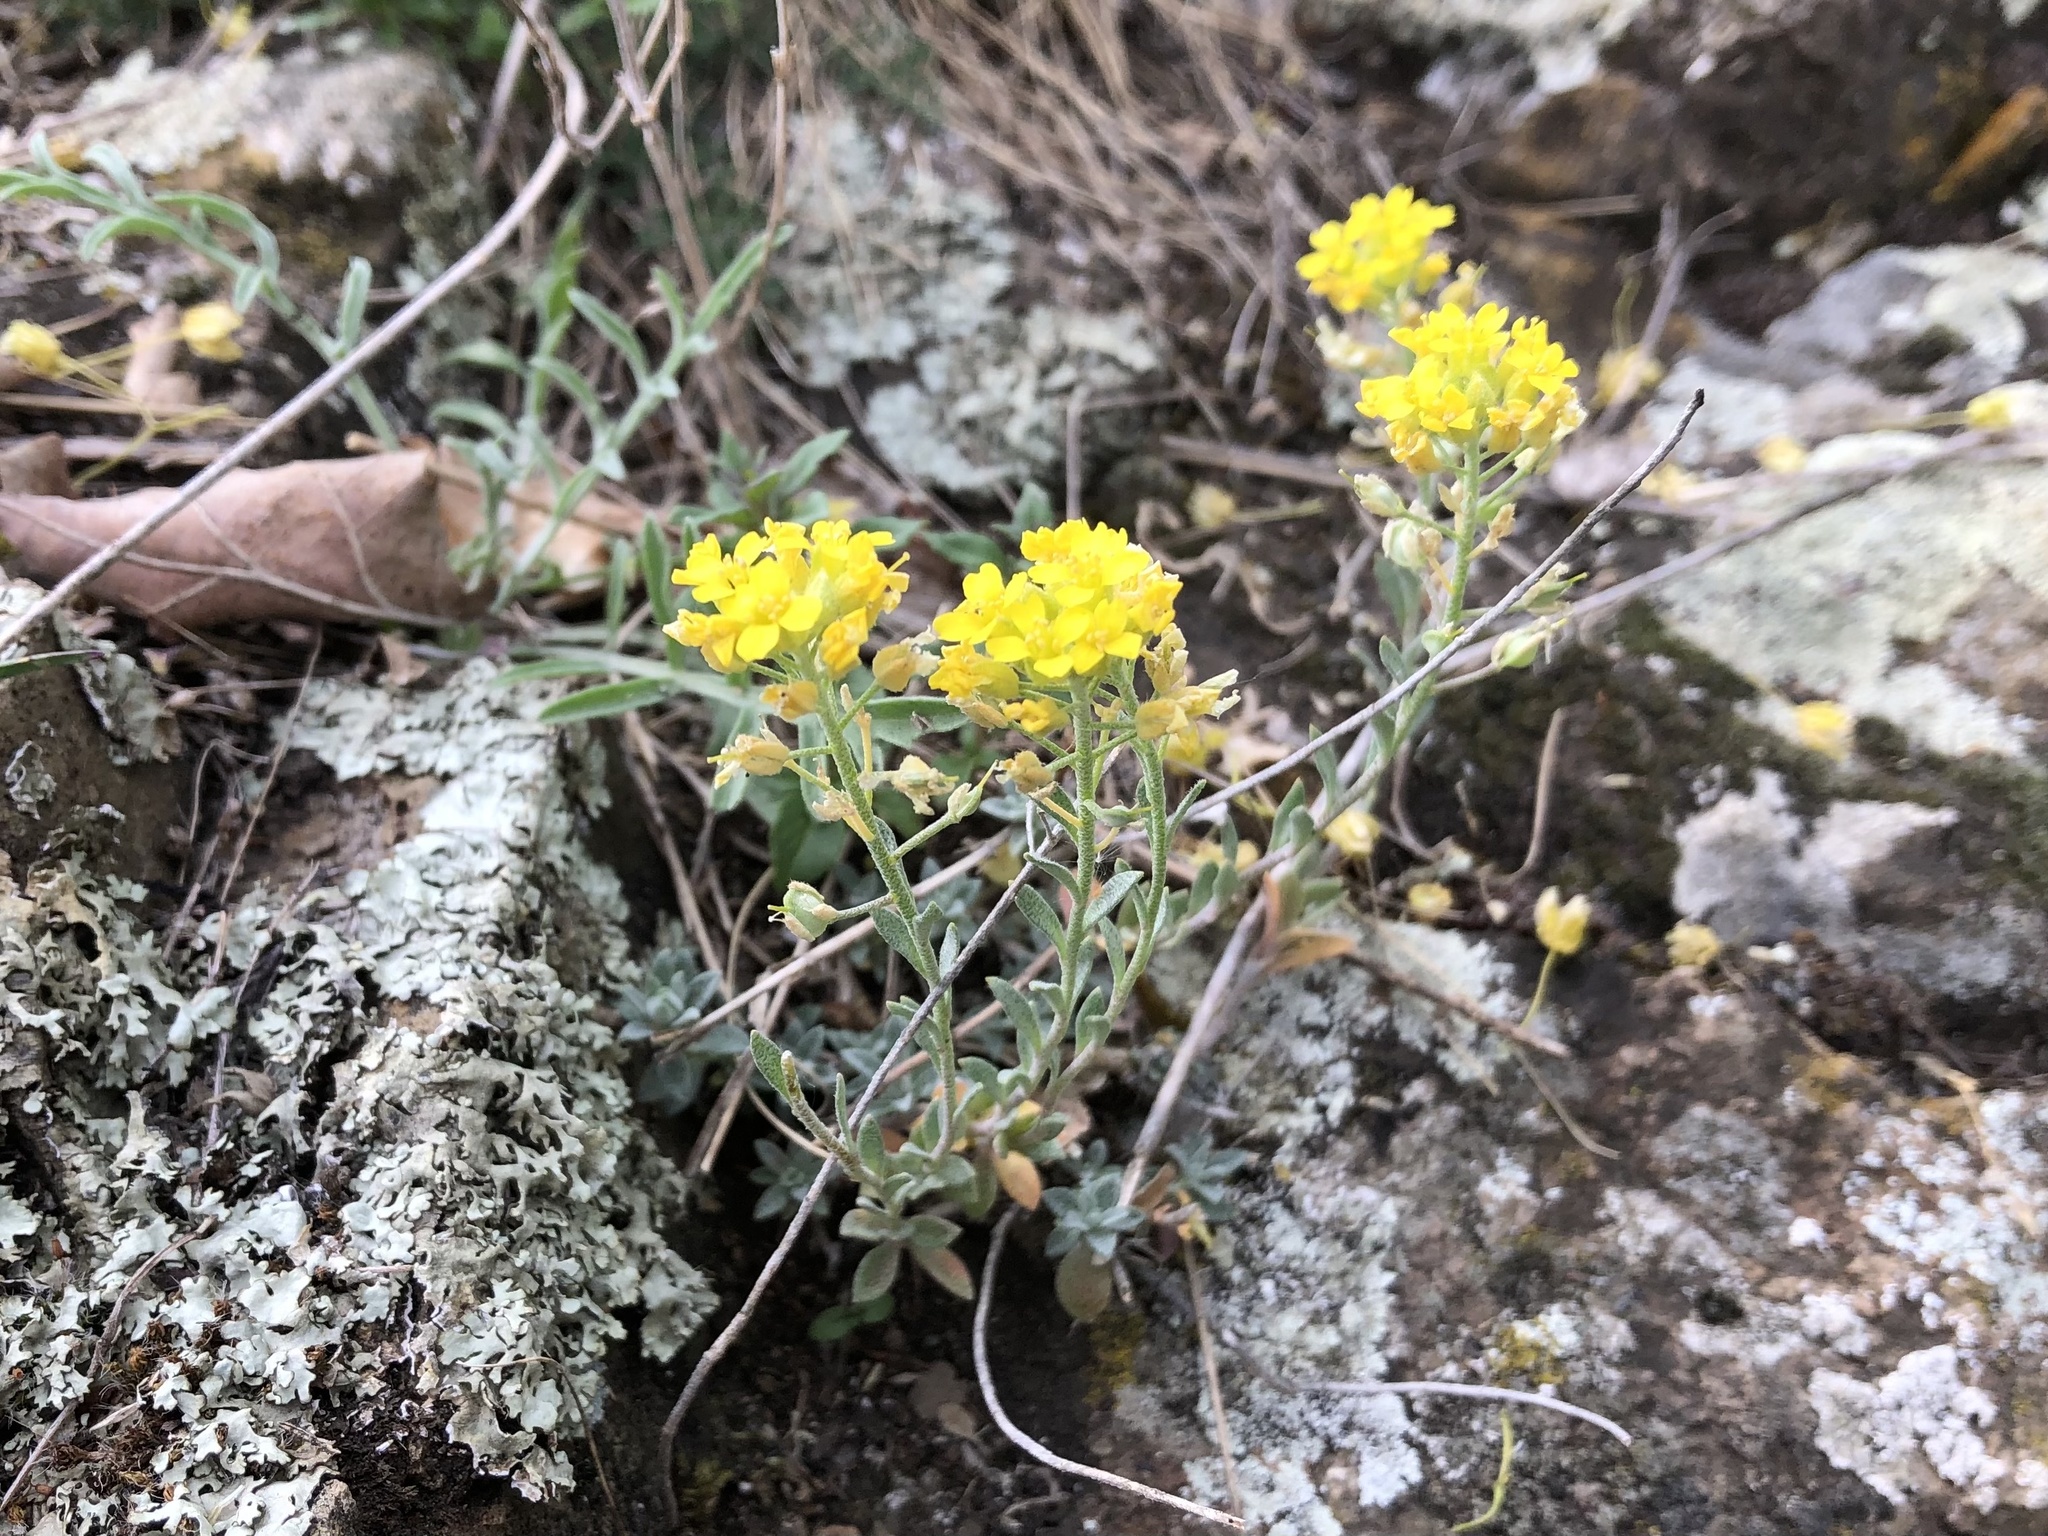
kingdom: Plantae
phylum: Tracheophyta
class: Magnoliopsida
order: Brassicales
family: Brassicaceae
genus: Alyssum
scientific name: Alyssum gmelinii
